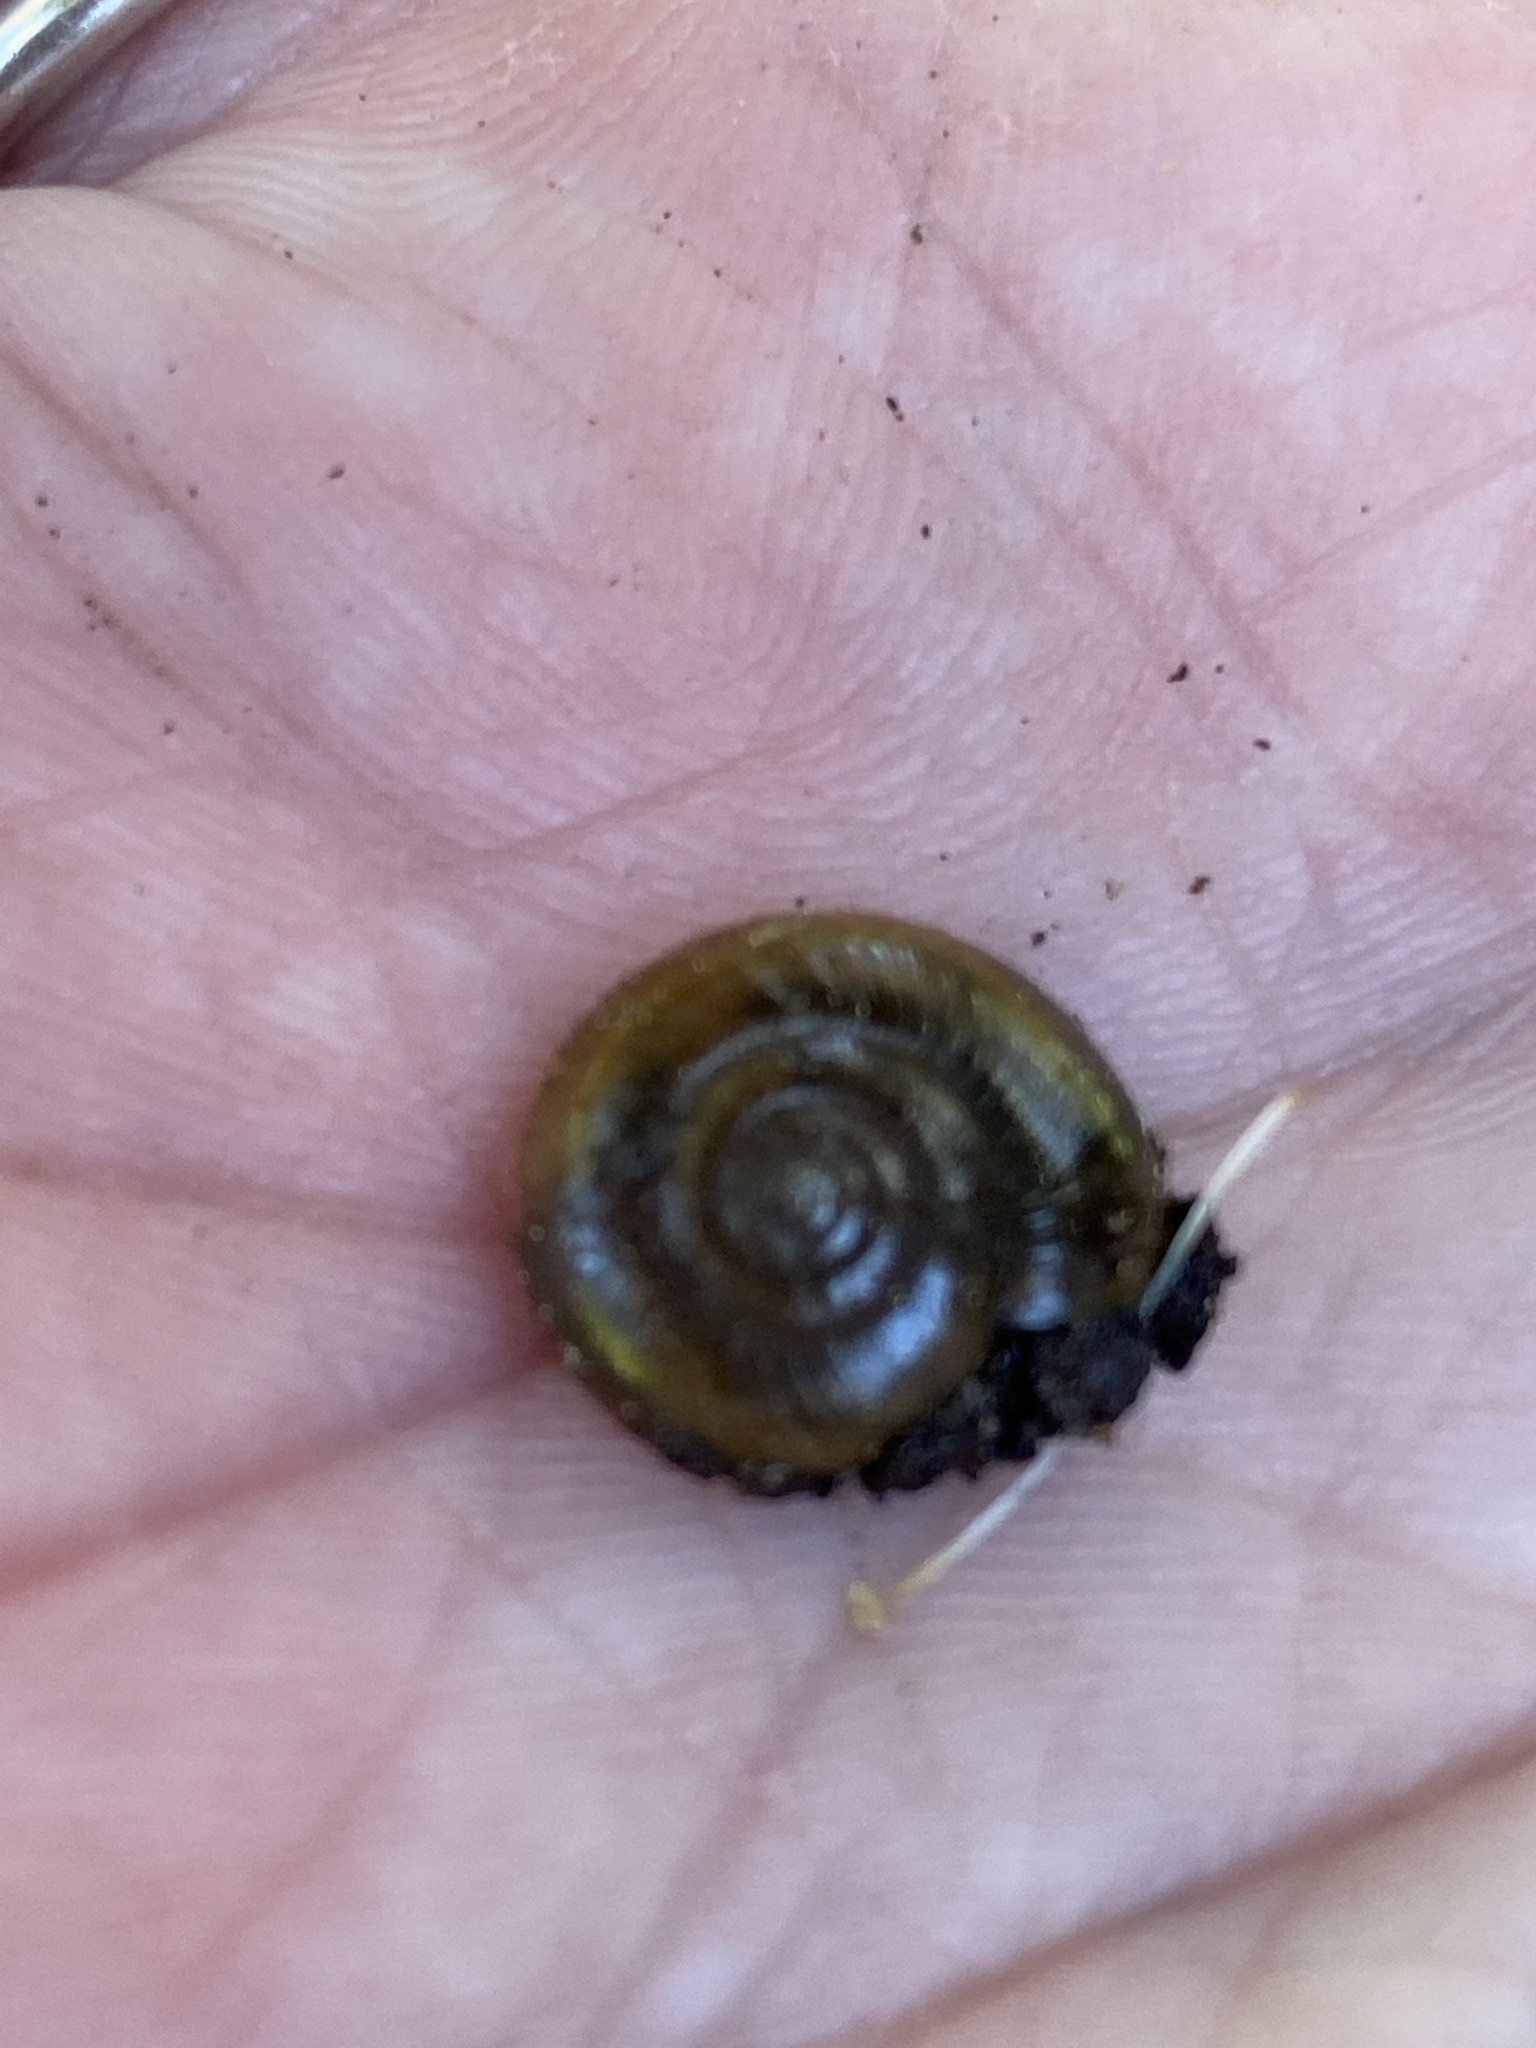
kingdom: Animalia
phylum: Mollusca
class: Gastropoda
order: Stylommatophora
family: Oxychilidae
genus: Oxychilus
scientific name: Oxychilus draparnaudi
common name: Draparnaud's glass snail
